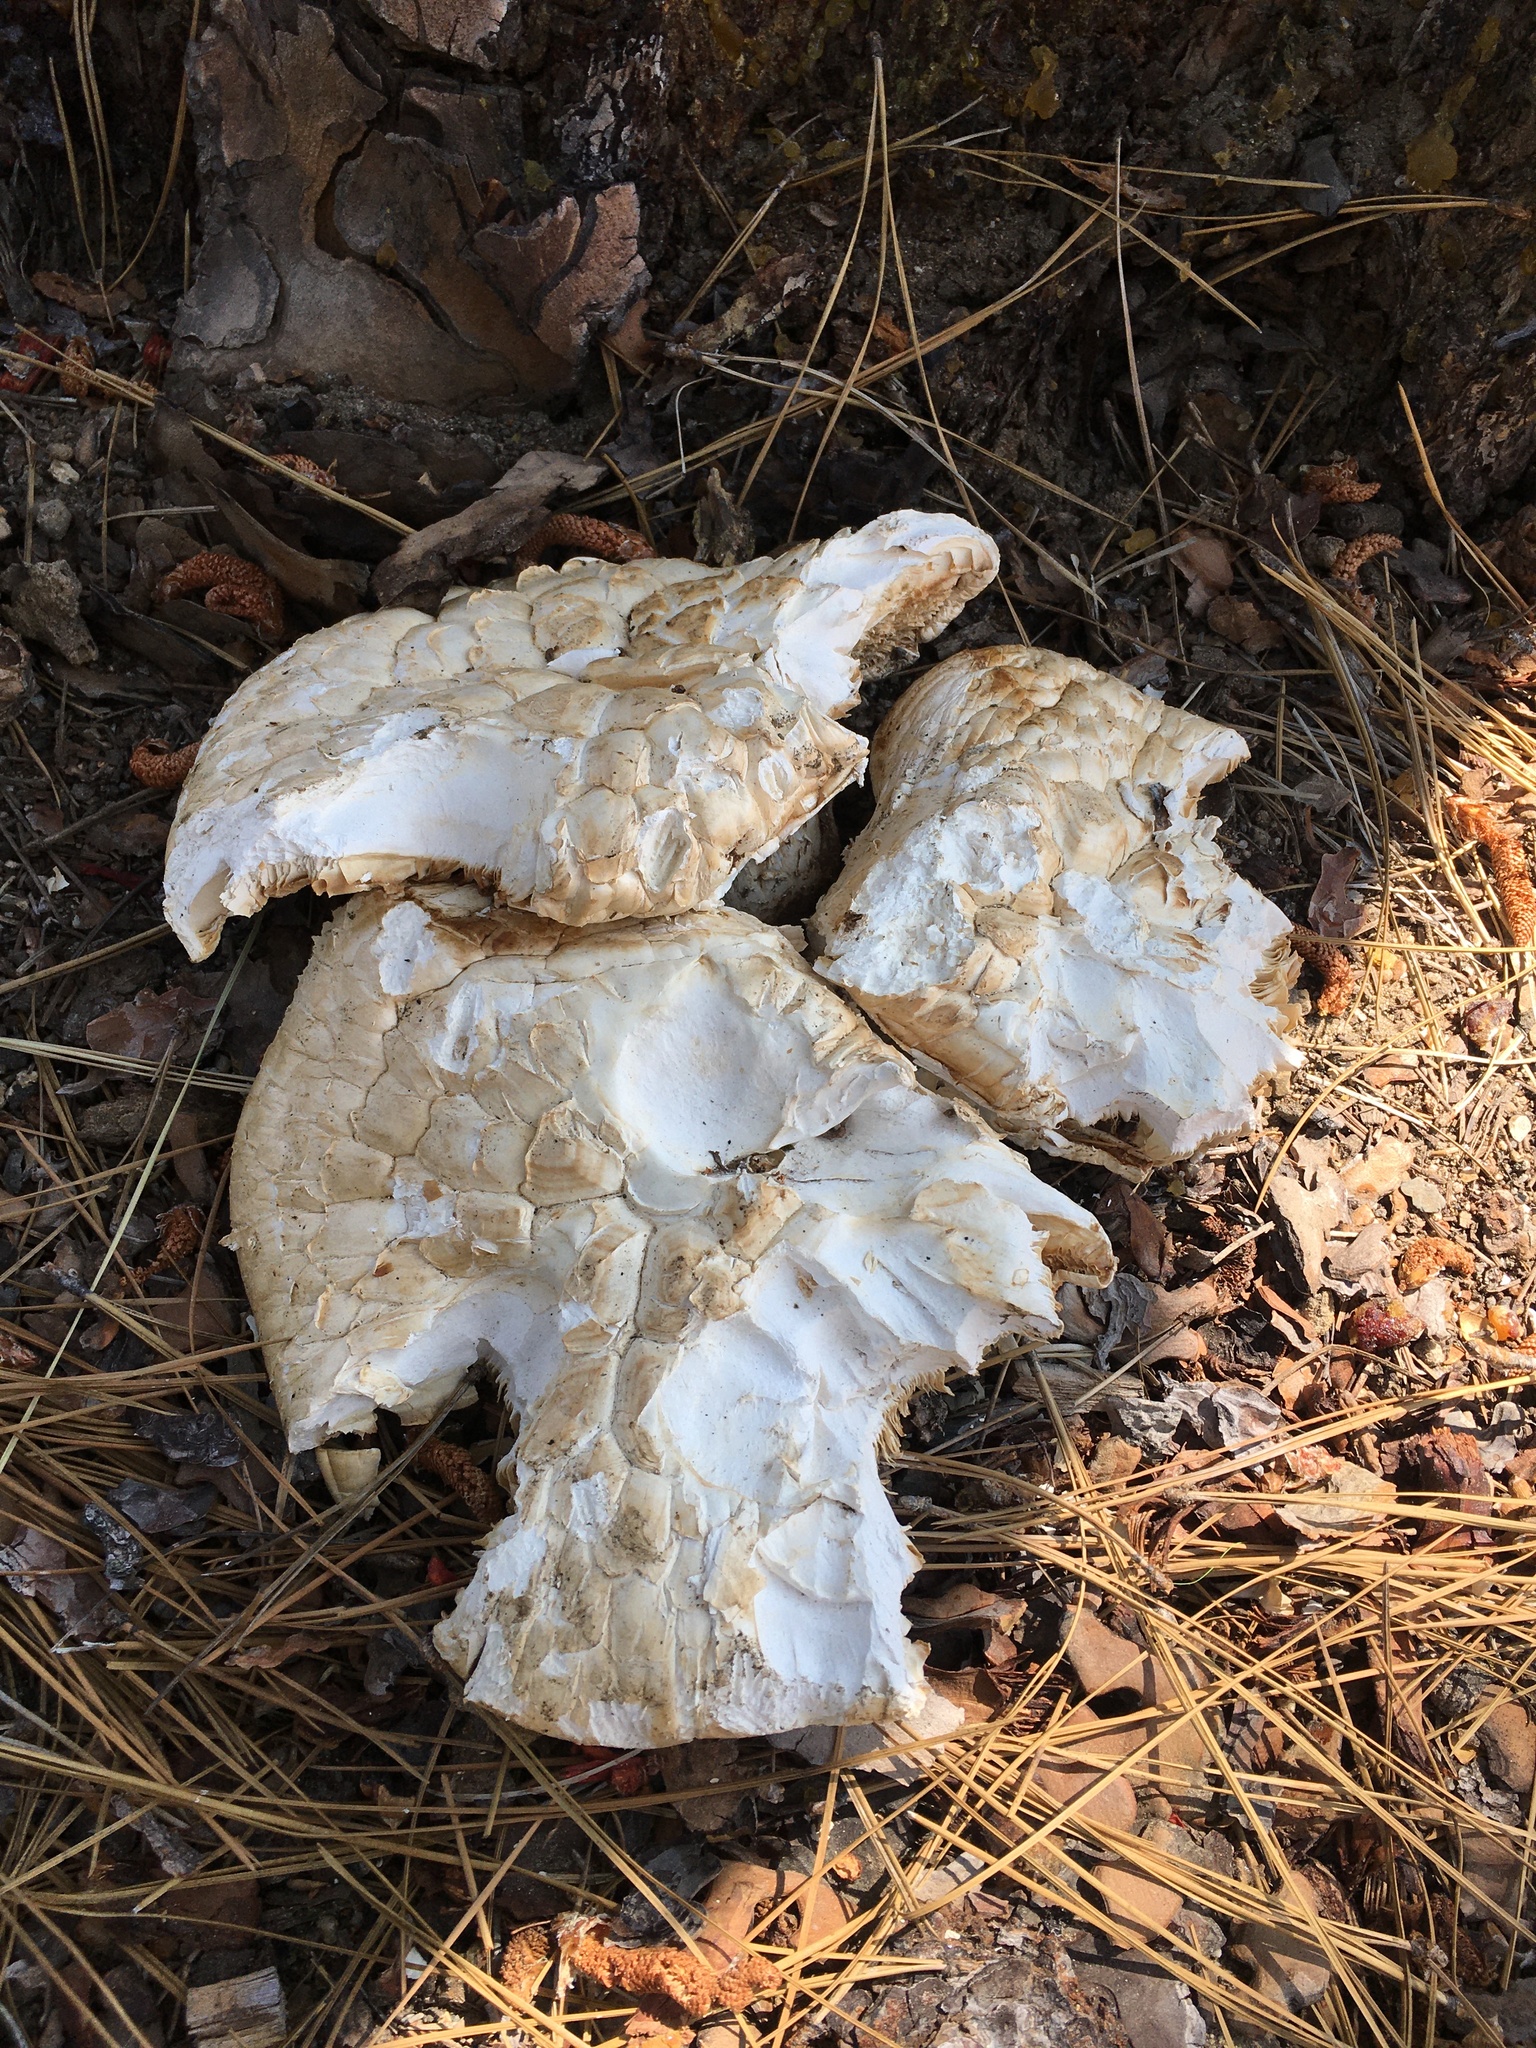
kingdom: Fungi
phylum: Basidiomycota
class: Agaricomycetes
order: Gloeophyllales
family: Gloeophyllaceae
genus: Neolentinus
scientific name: Neolentinus ponderosus
